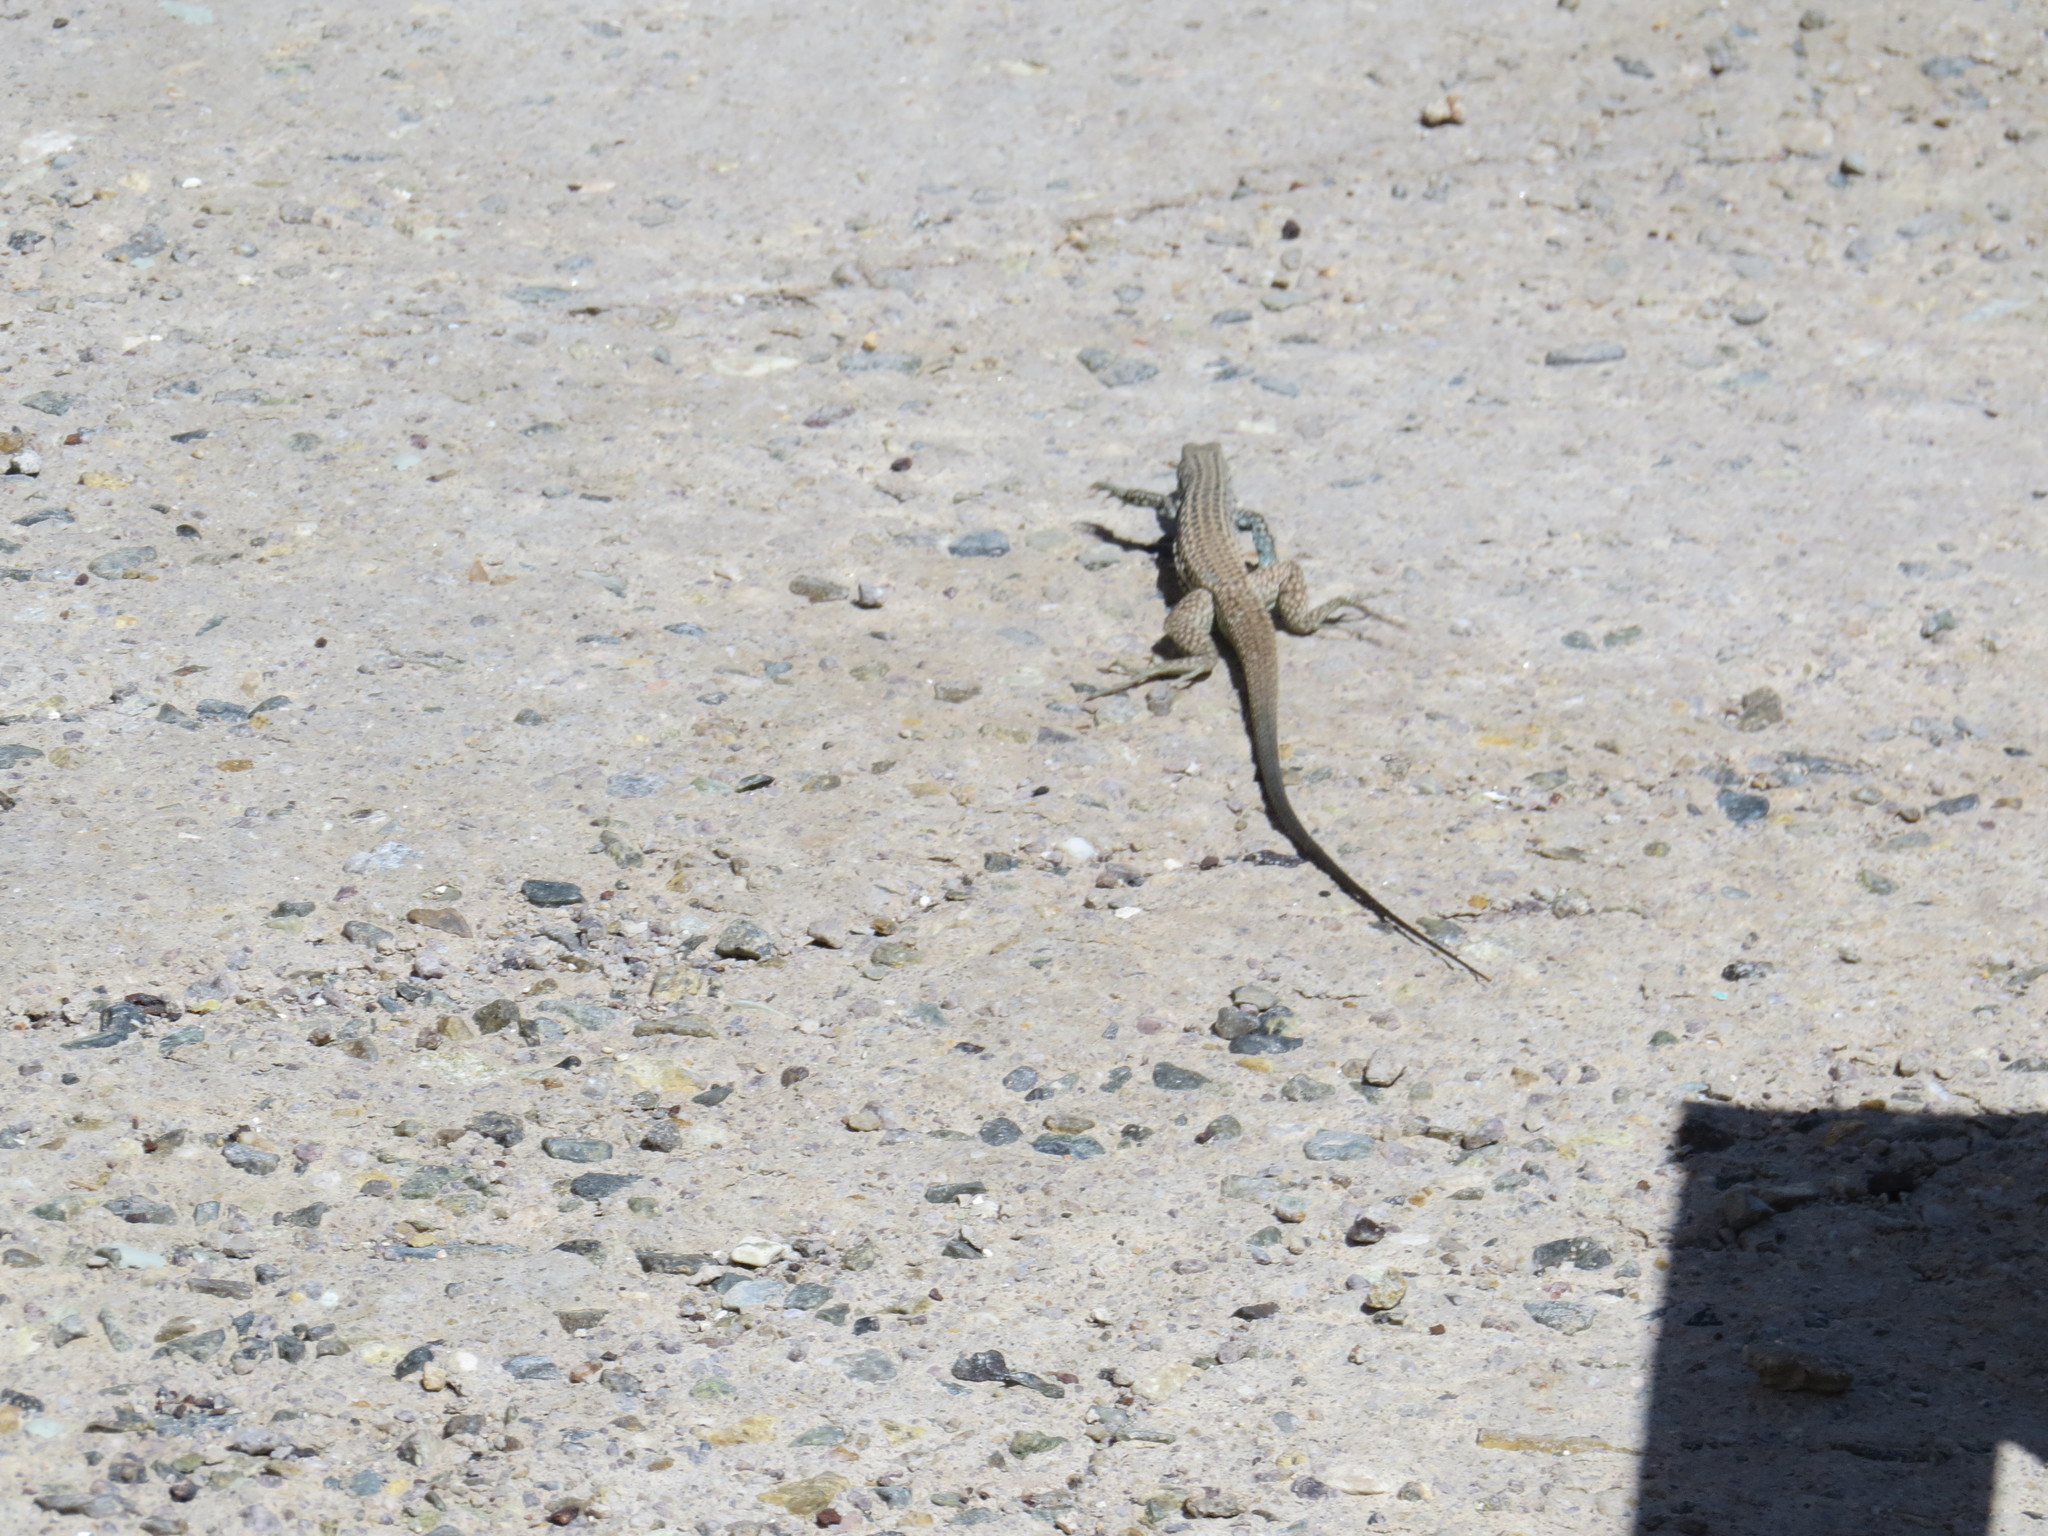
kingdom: Animalia
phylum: Chordata
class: Squamata
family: Teiidae
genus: Aspidoscelis
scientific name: Aspidoscelis tigris
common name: Tiger whiptail
